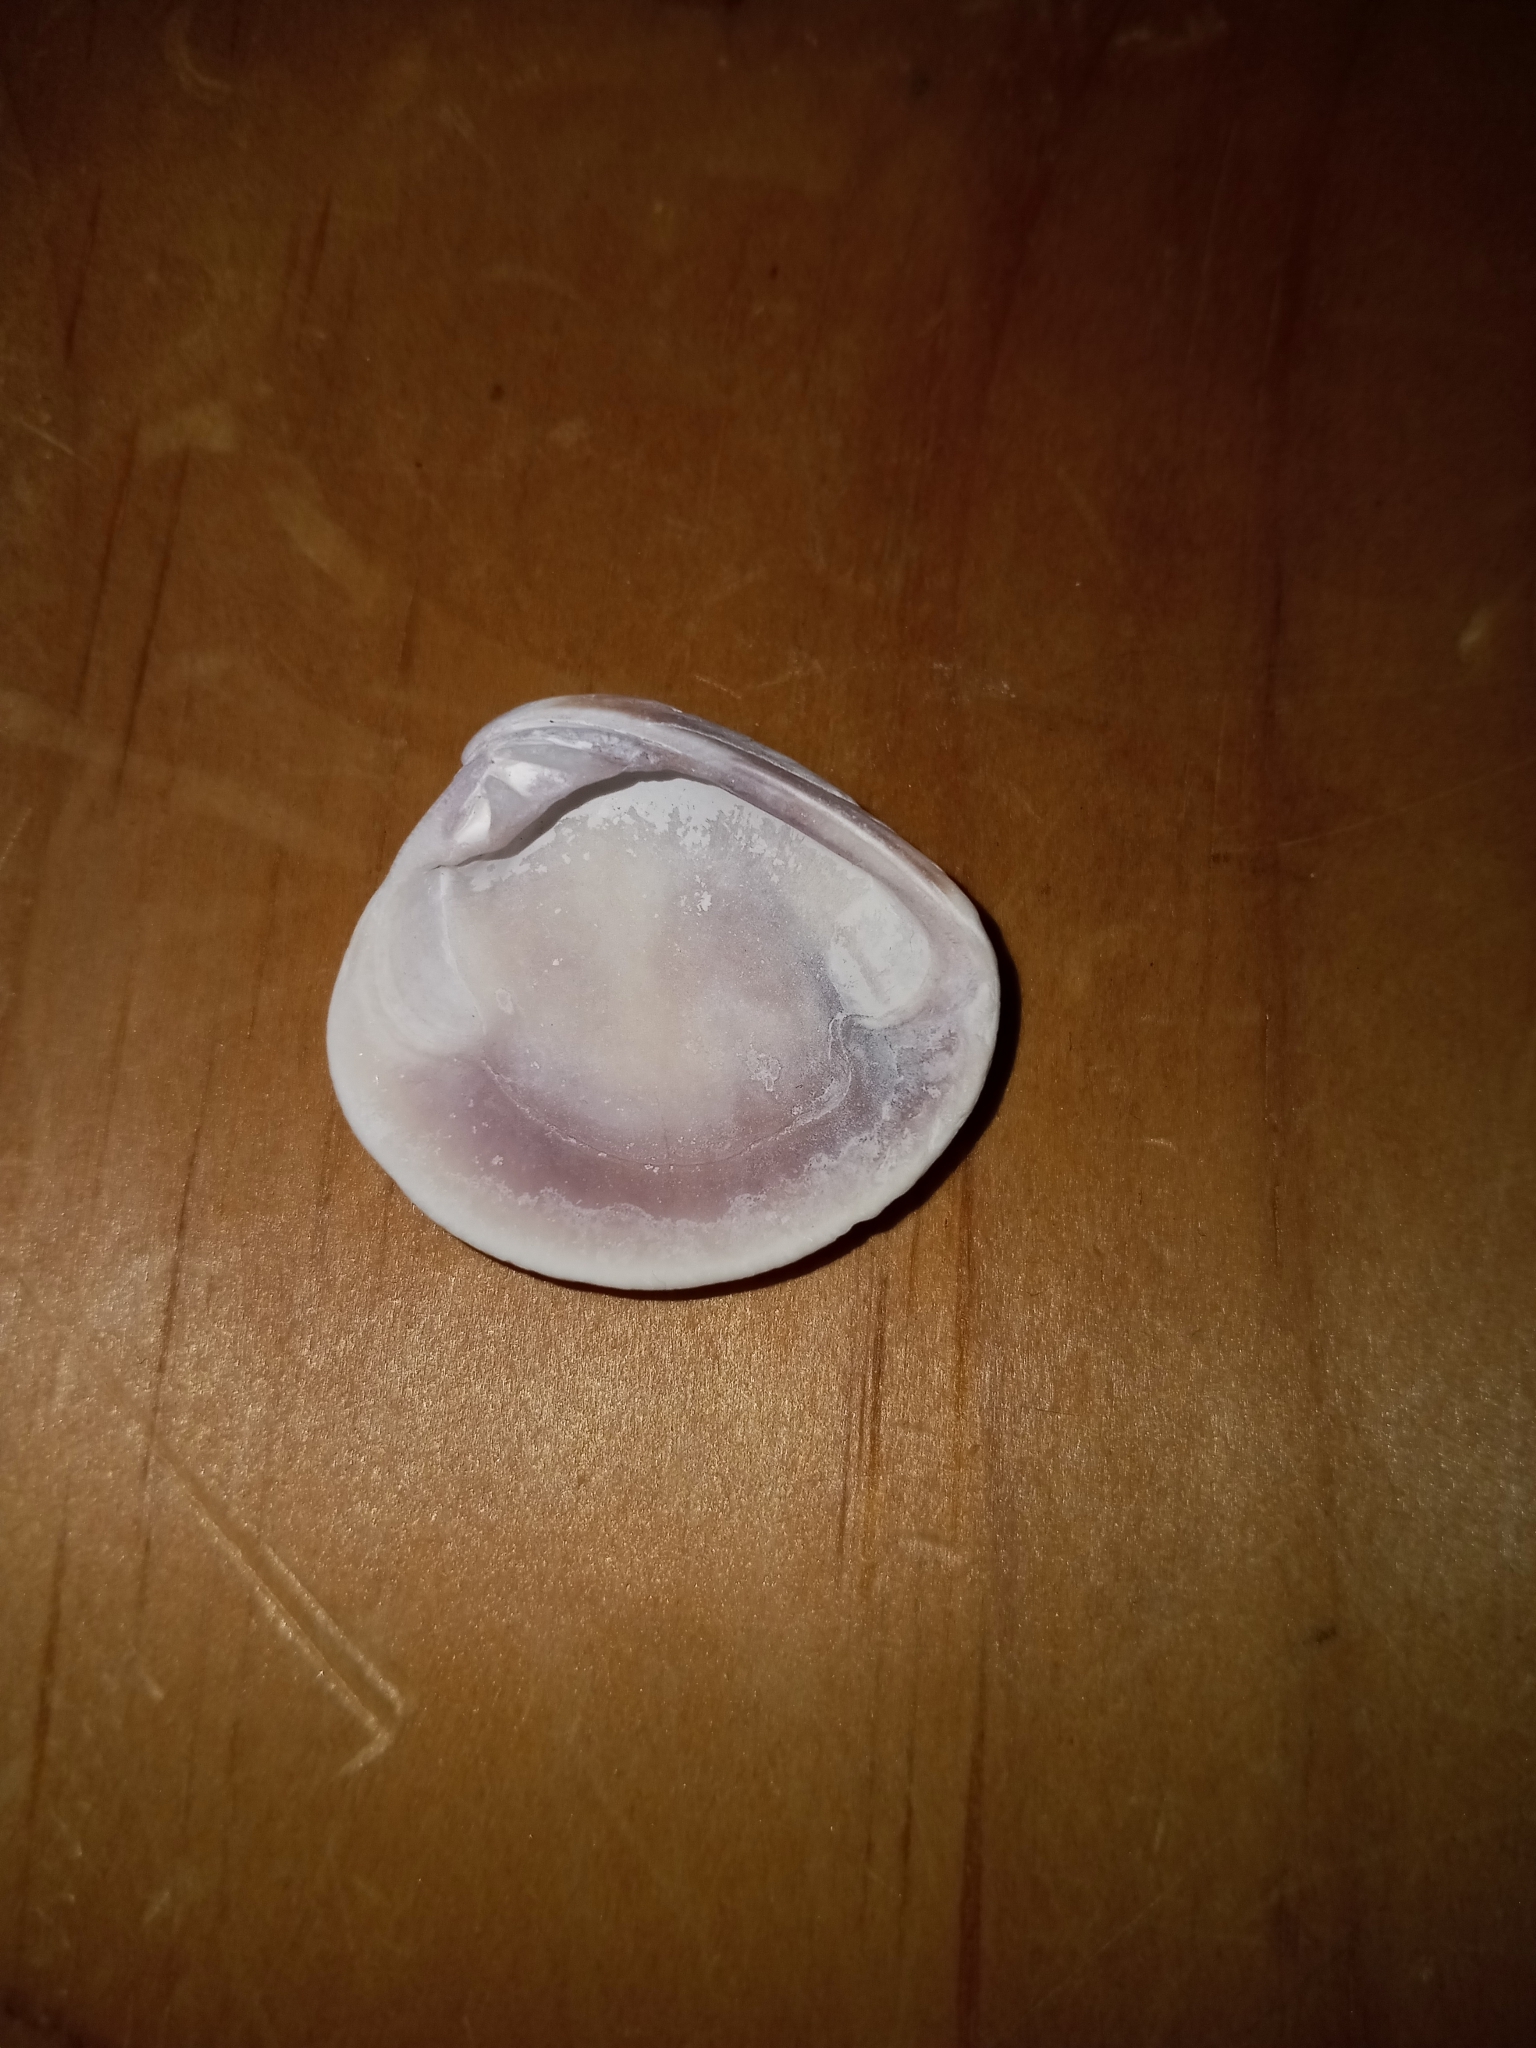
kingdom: Animalia
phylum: Mollusca
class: Bivalvia
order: Venerida
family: Veneridae
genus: Chione
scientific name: Chione elevata
